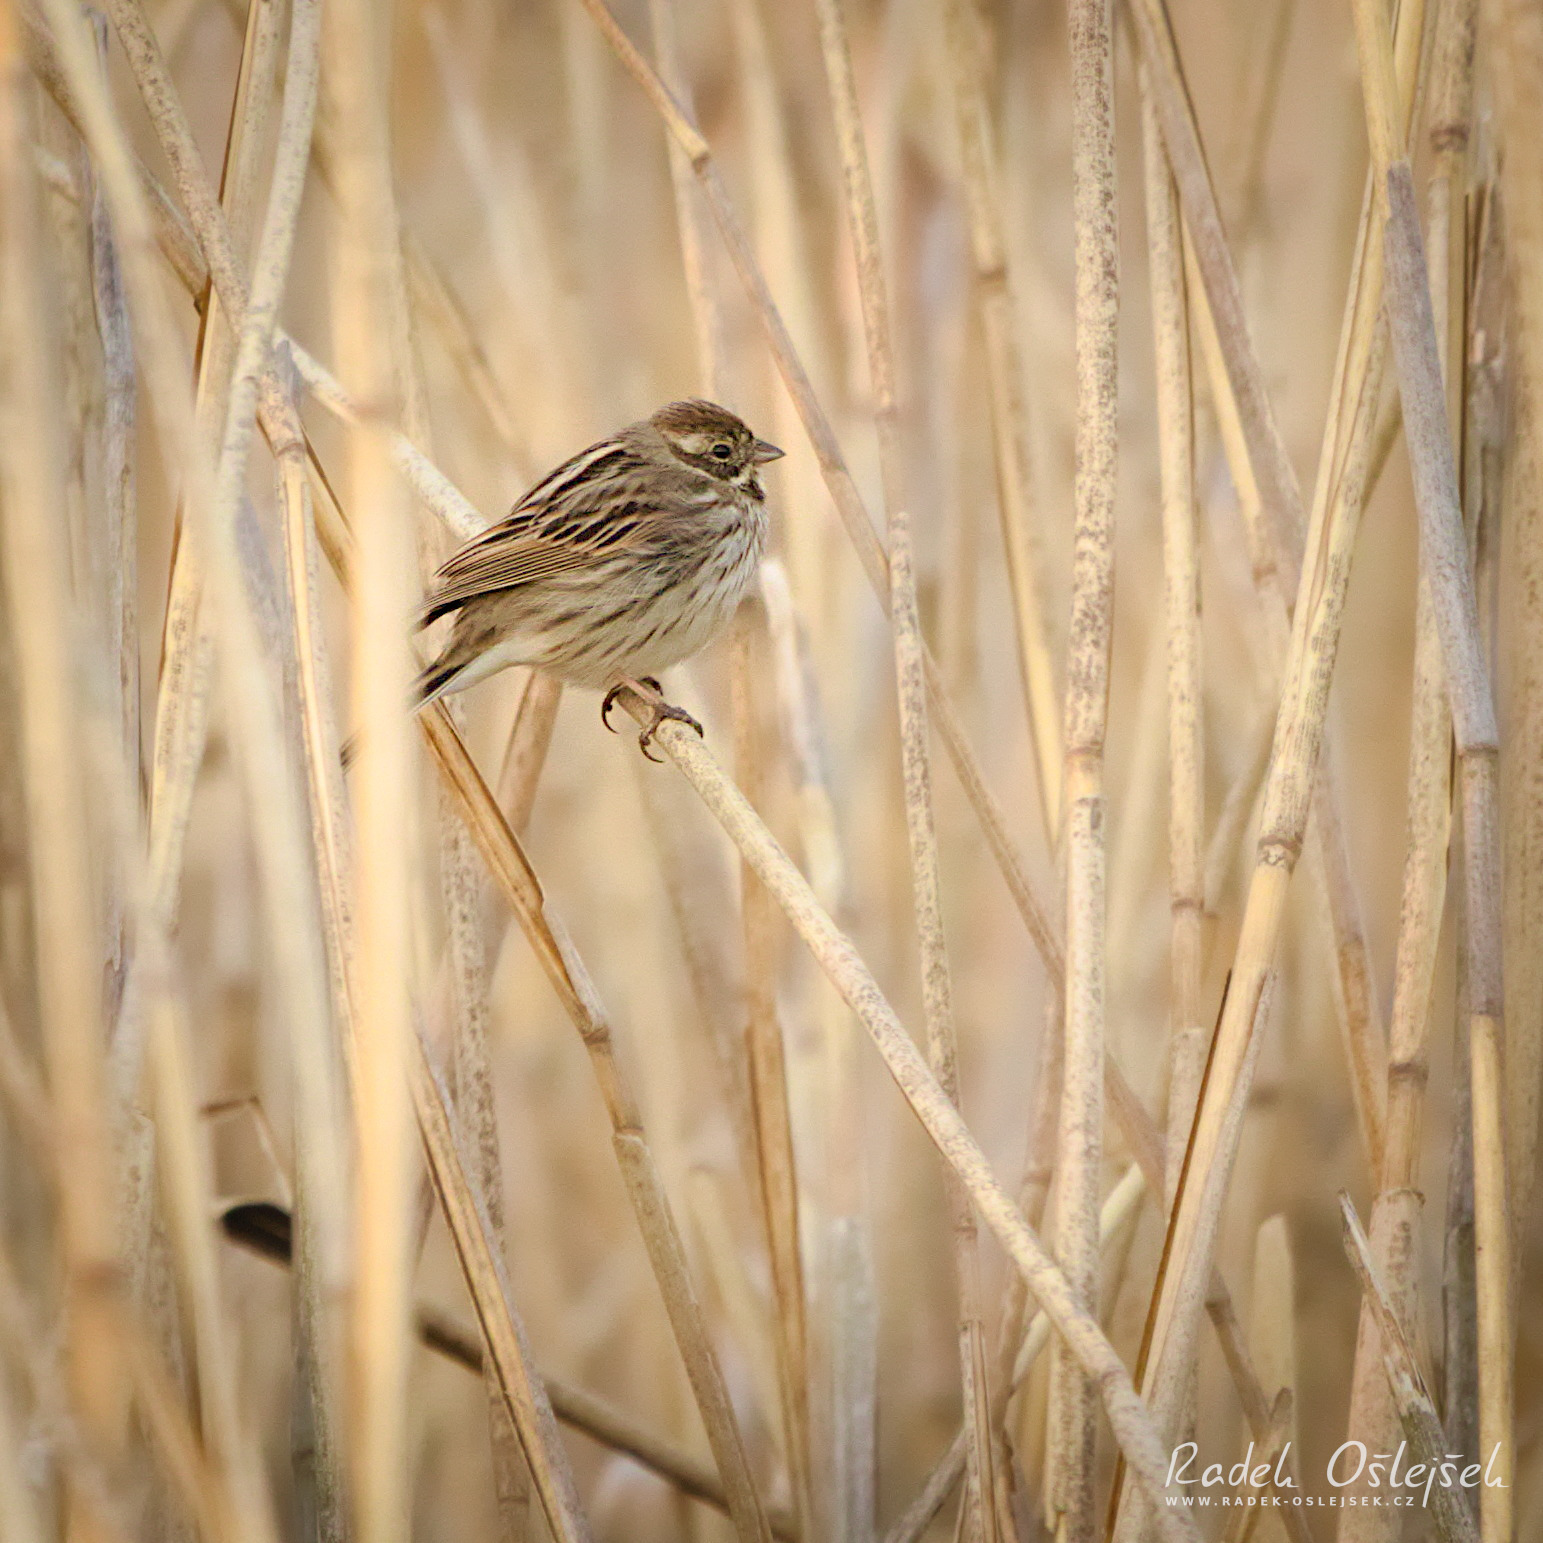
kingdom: Animalia
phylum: Chordata
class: Aves
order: Passeriformes
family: Emberizidae
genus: Emberiza
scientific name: Emberiza schoeniclus
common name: Reed bunting
